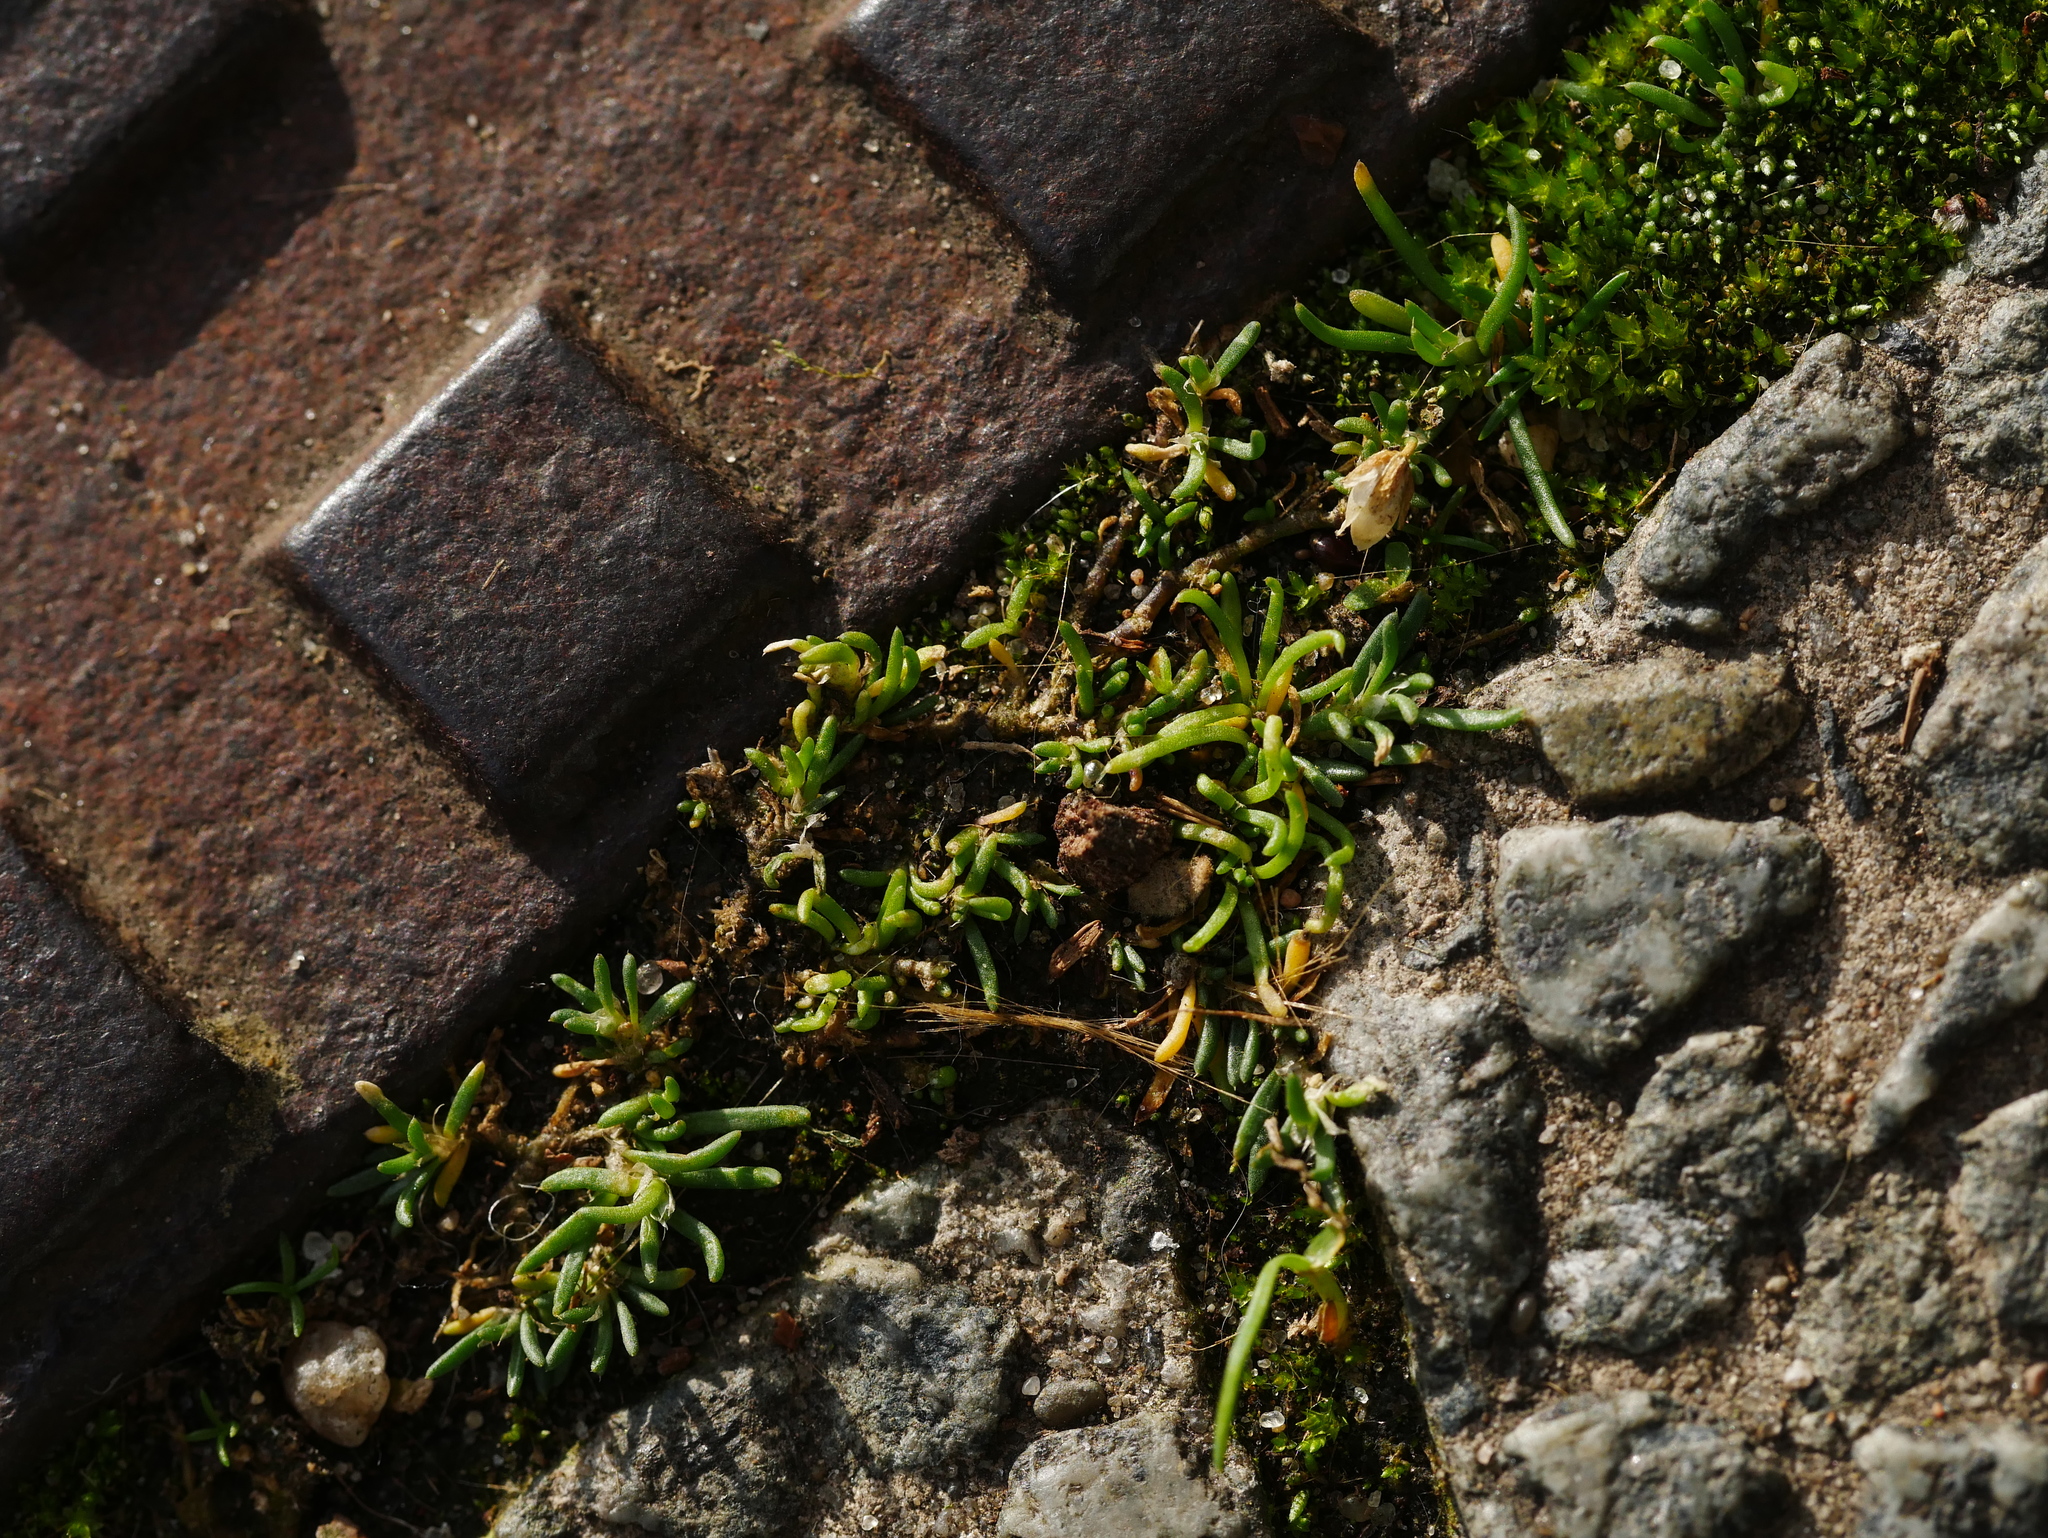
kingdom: Plantae
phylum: Tracheophyta
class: Magnoliopsida
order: Caryophyllales
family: Caryophyllaceae
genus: Sagina
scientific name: Sagina procumbens
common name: Procumbent pearlwort
